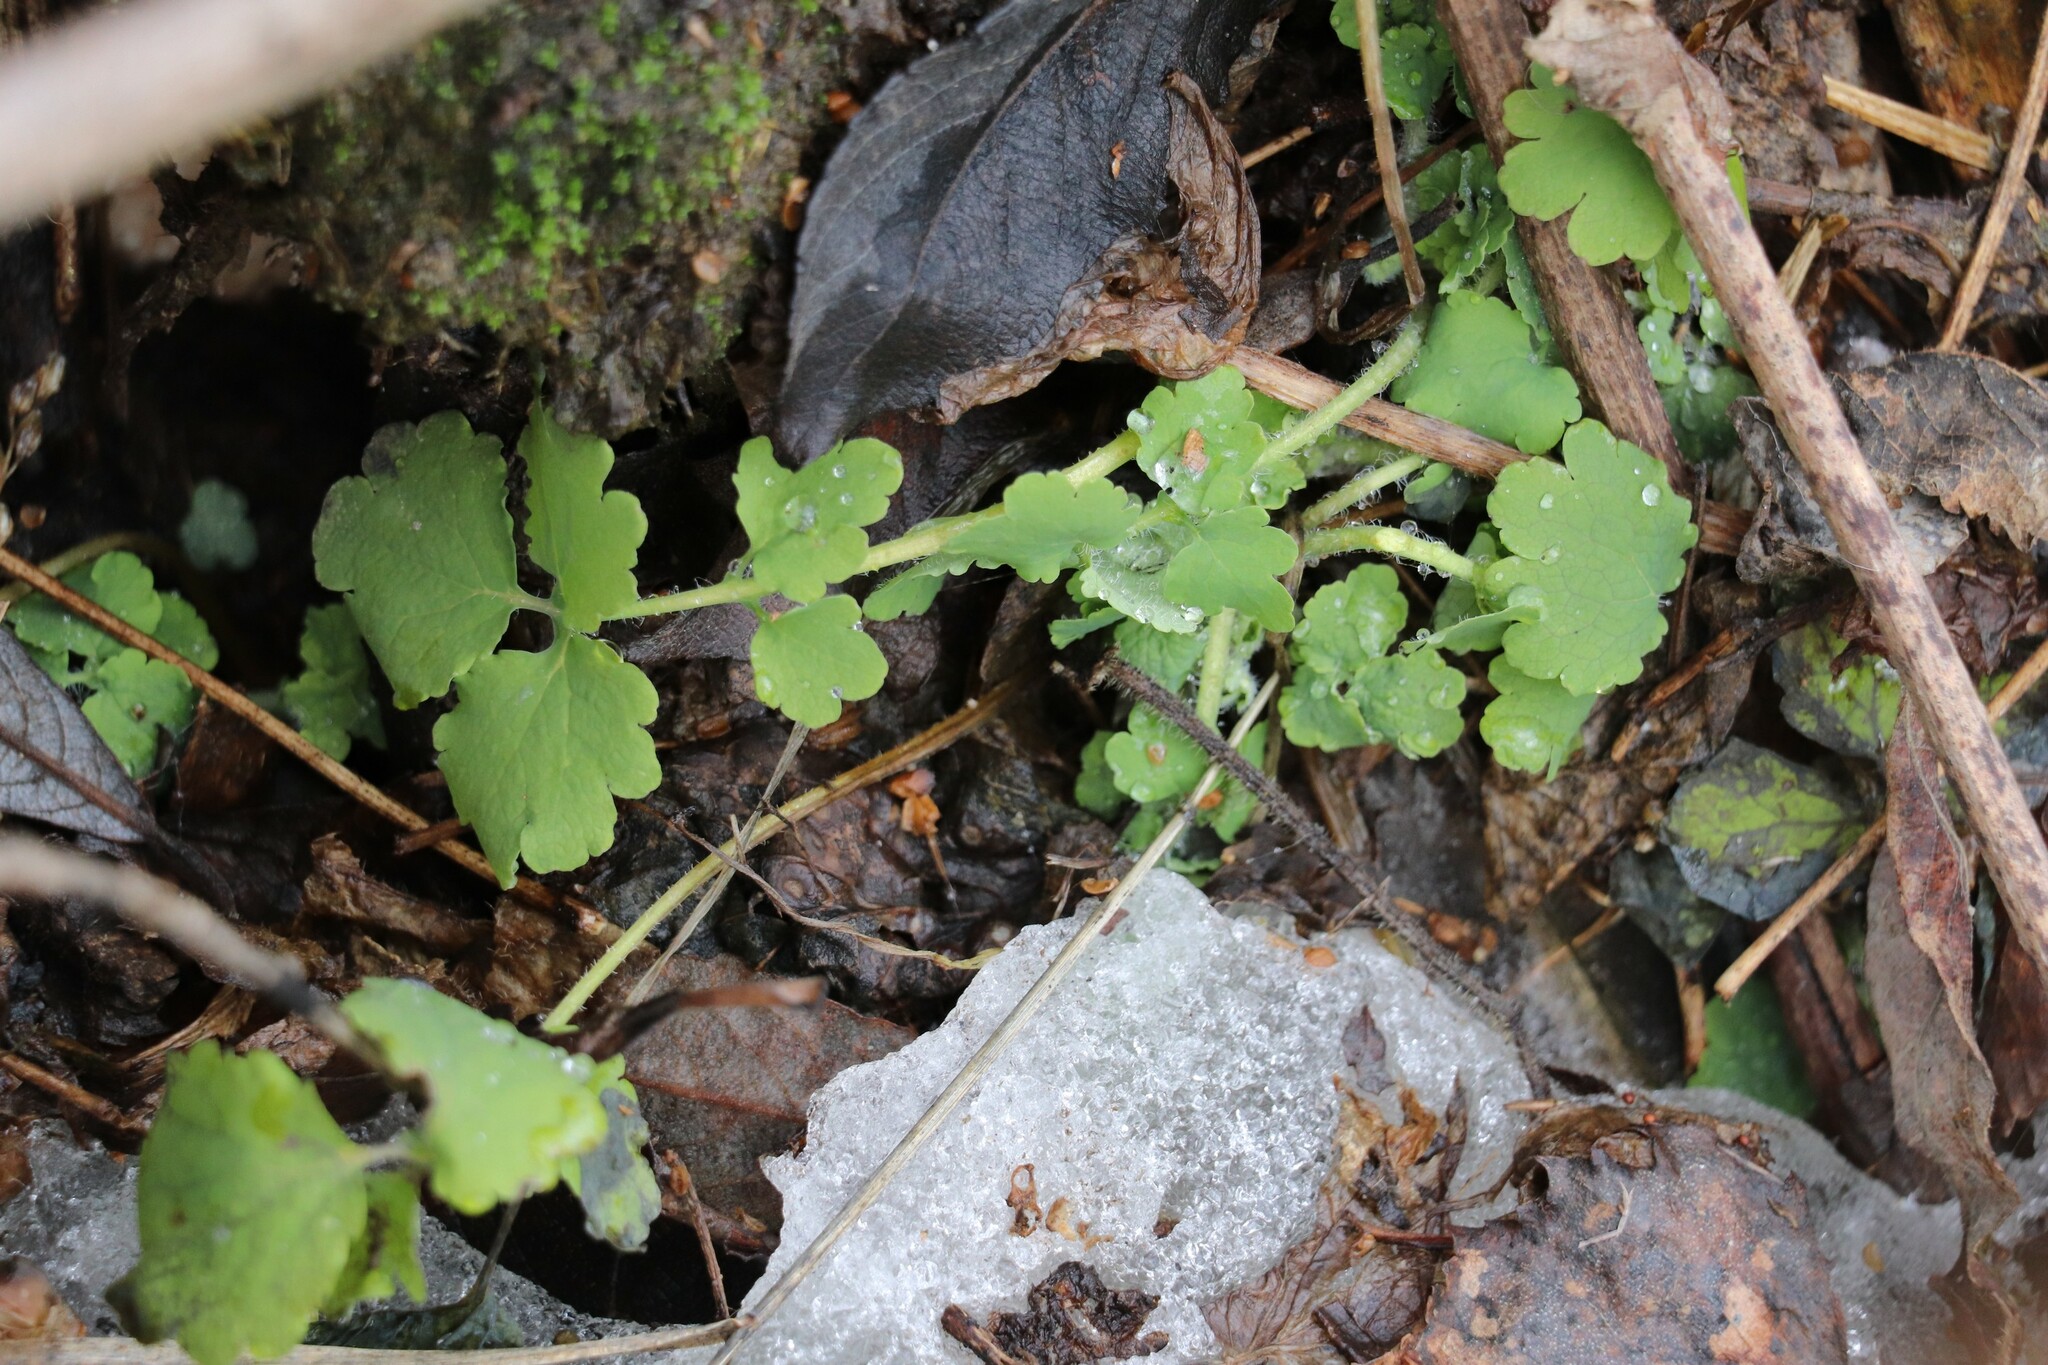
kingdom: Plantae
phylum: Tracheophyta
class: Magnoliopsida
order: Ranunculales
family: Papaveraceae
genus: Chelidonium
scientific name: Chelidonium majus
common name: Greater celandine
